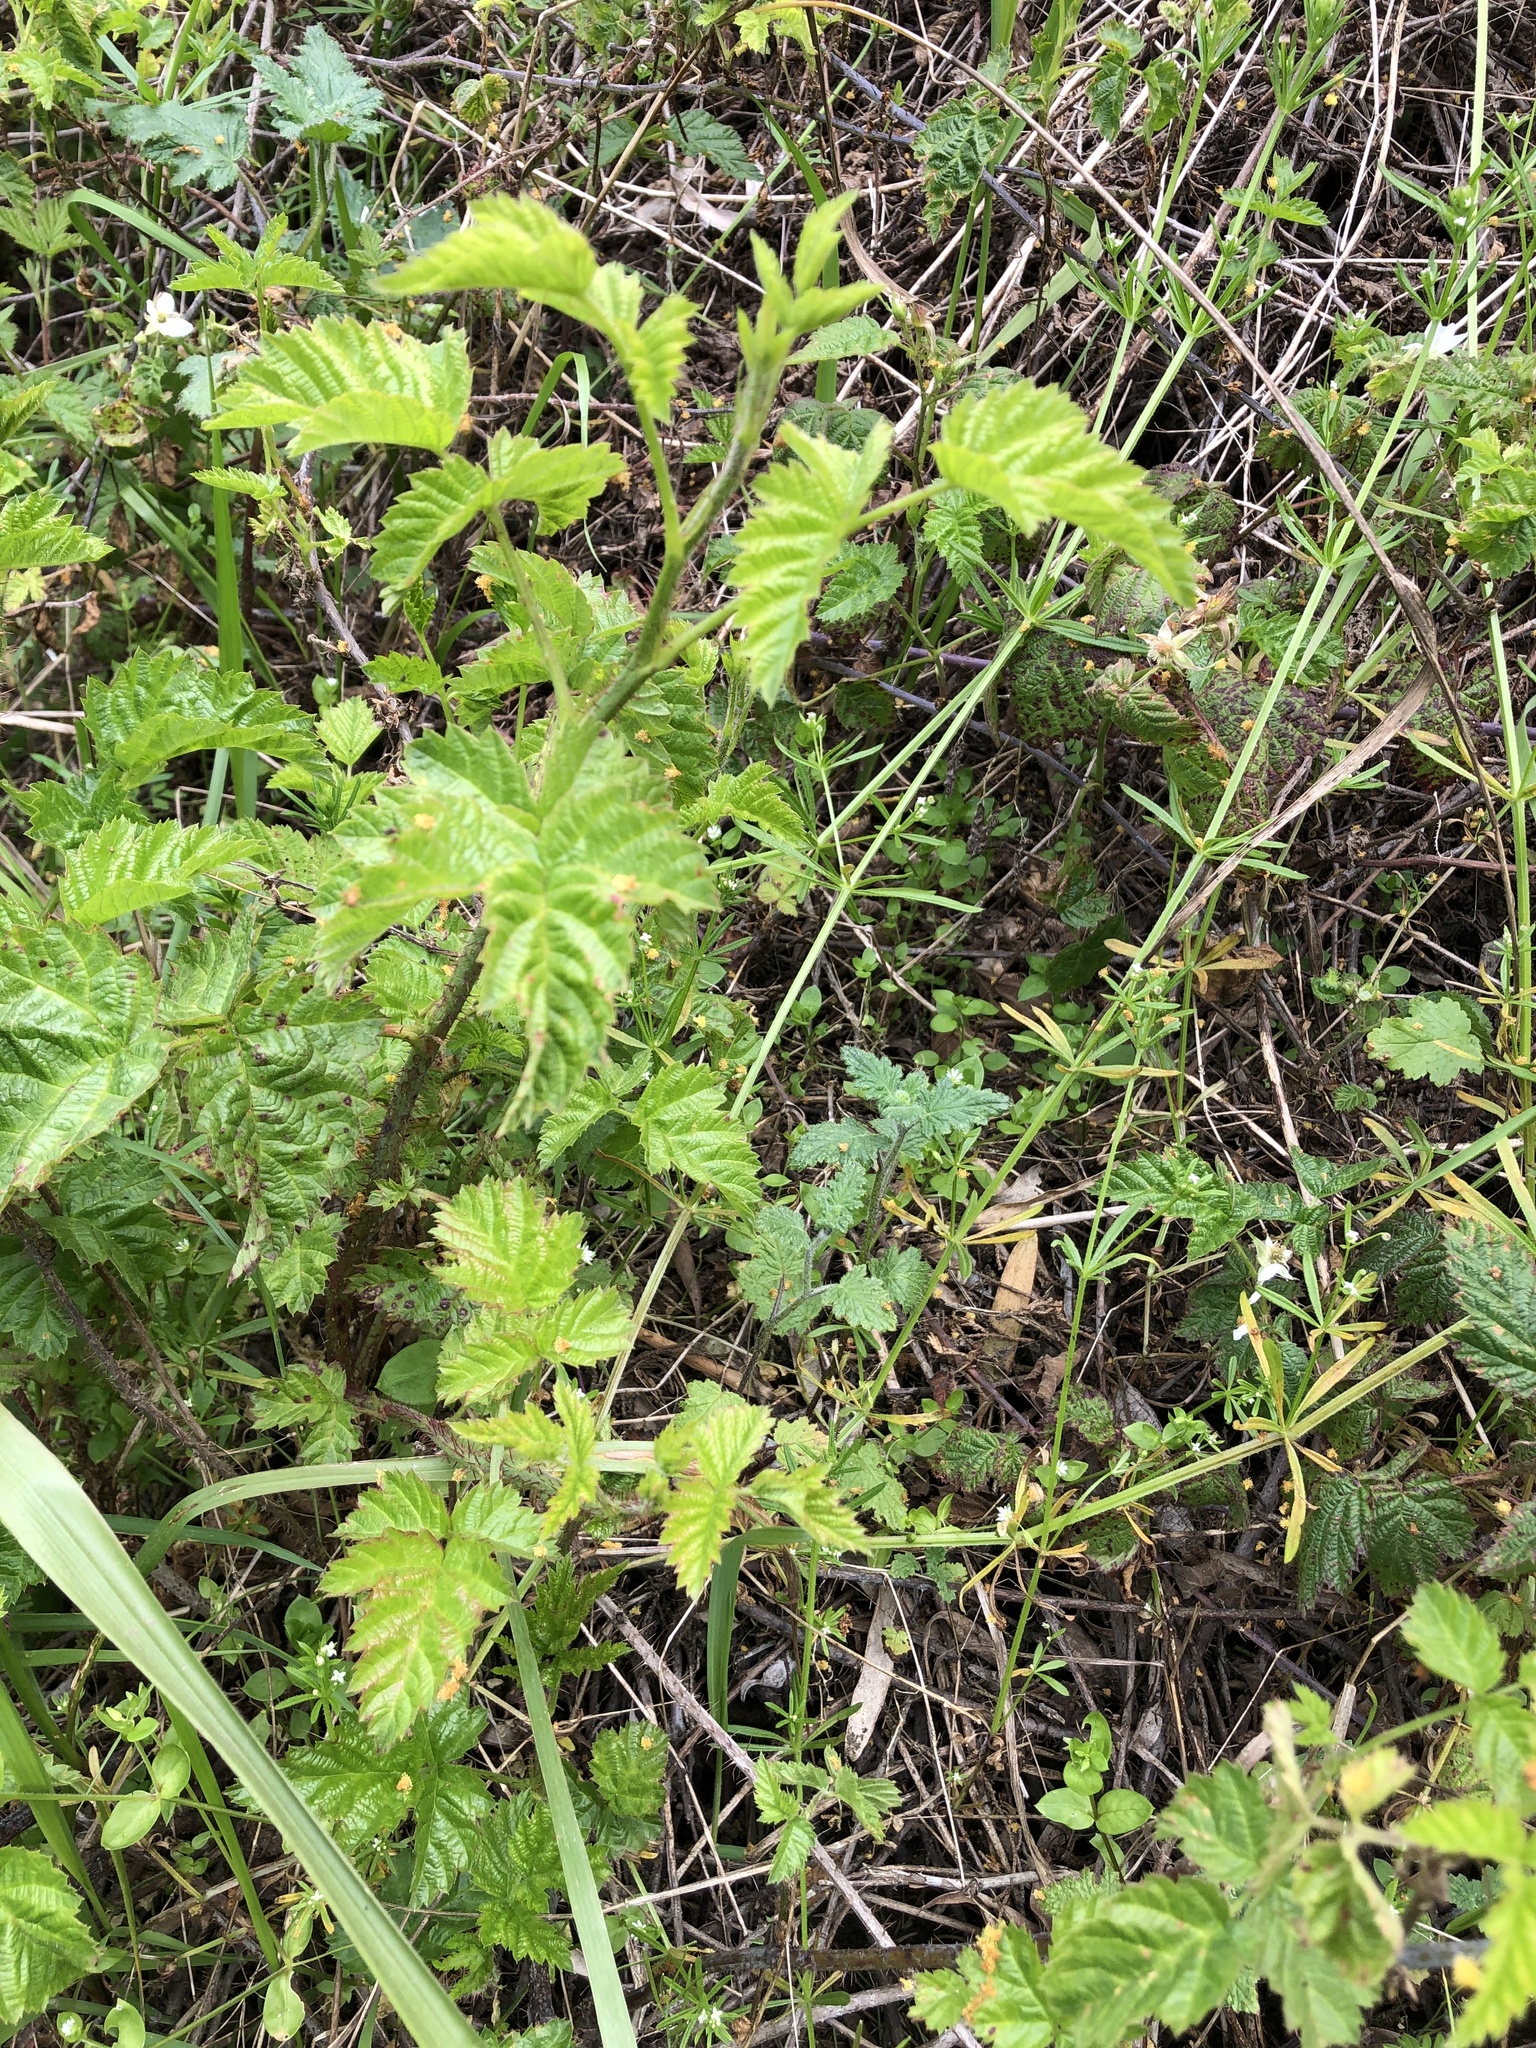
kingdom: Plantae
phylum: Tracheophyta
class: Magnoliopsida
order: Rosales
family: Rosaceae
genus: Rubus
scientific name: Rubus ursinus
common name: Pacific blackberry
